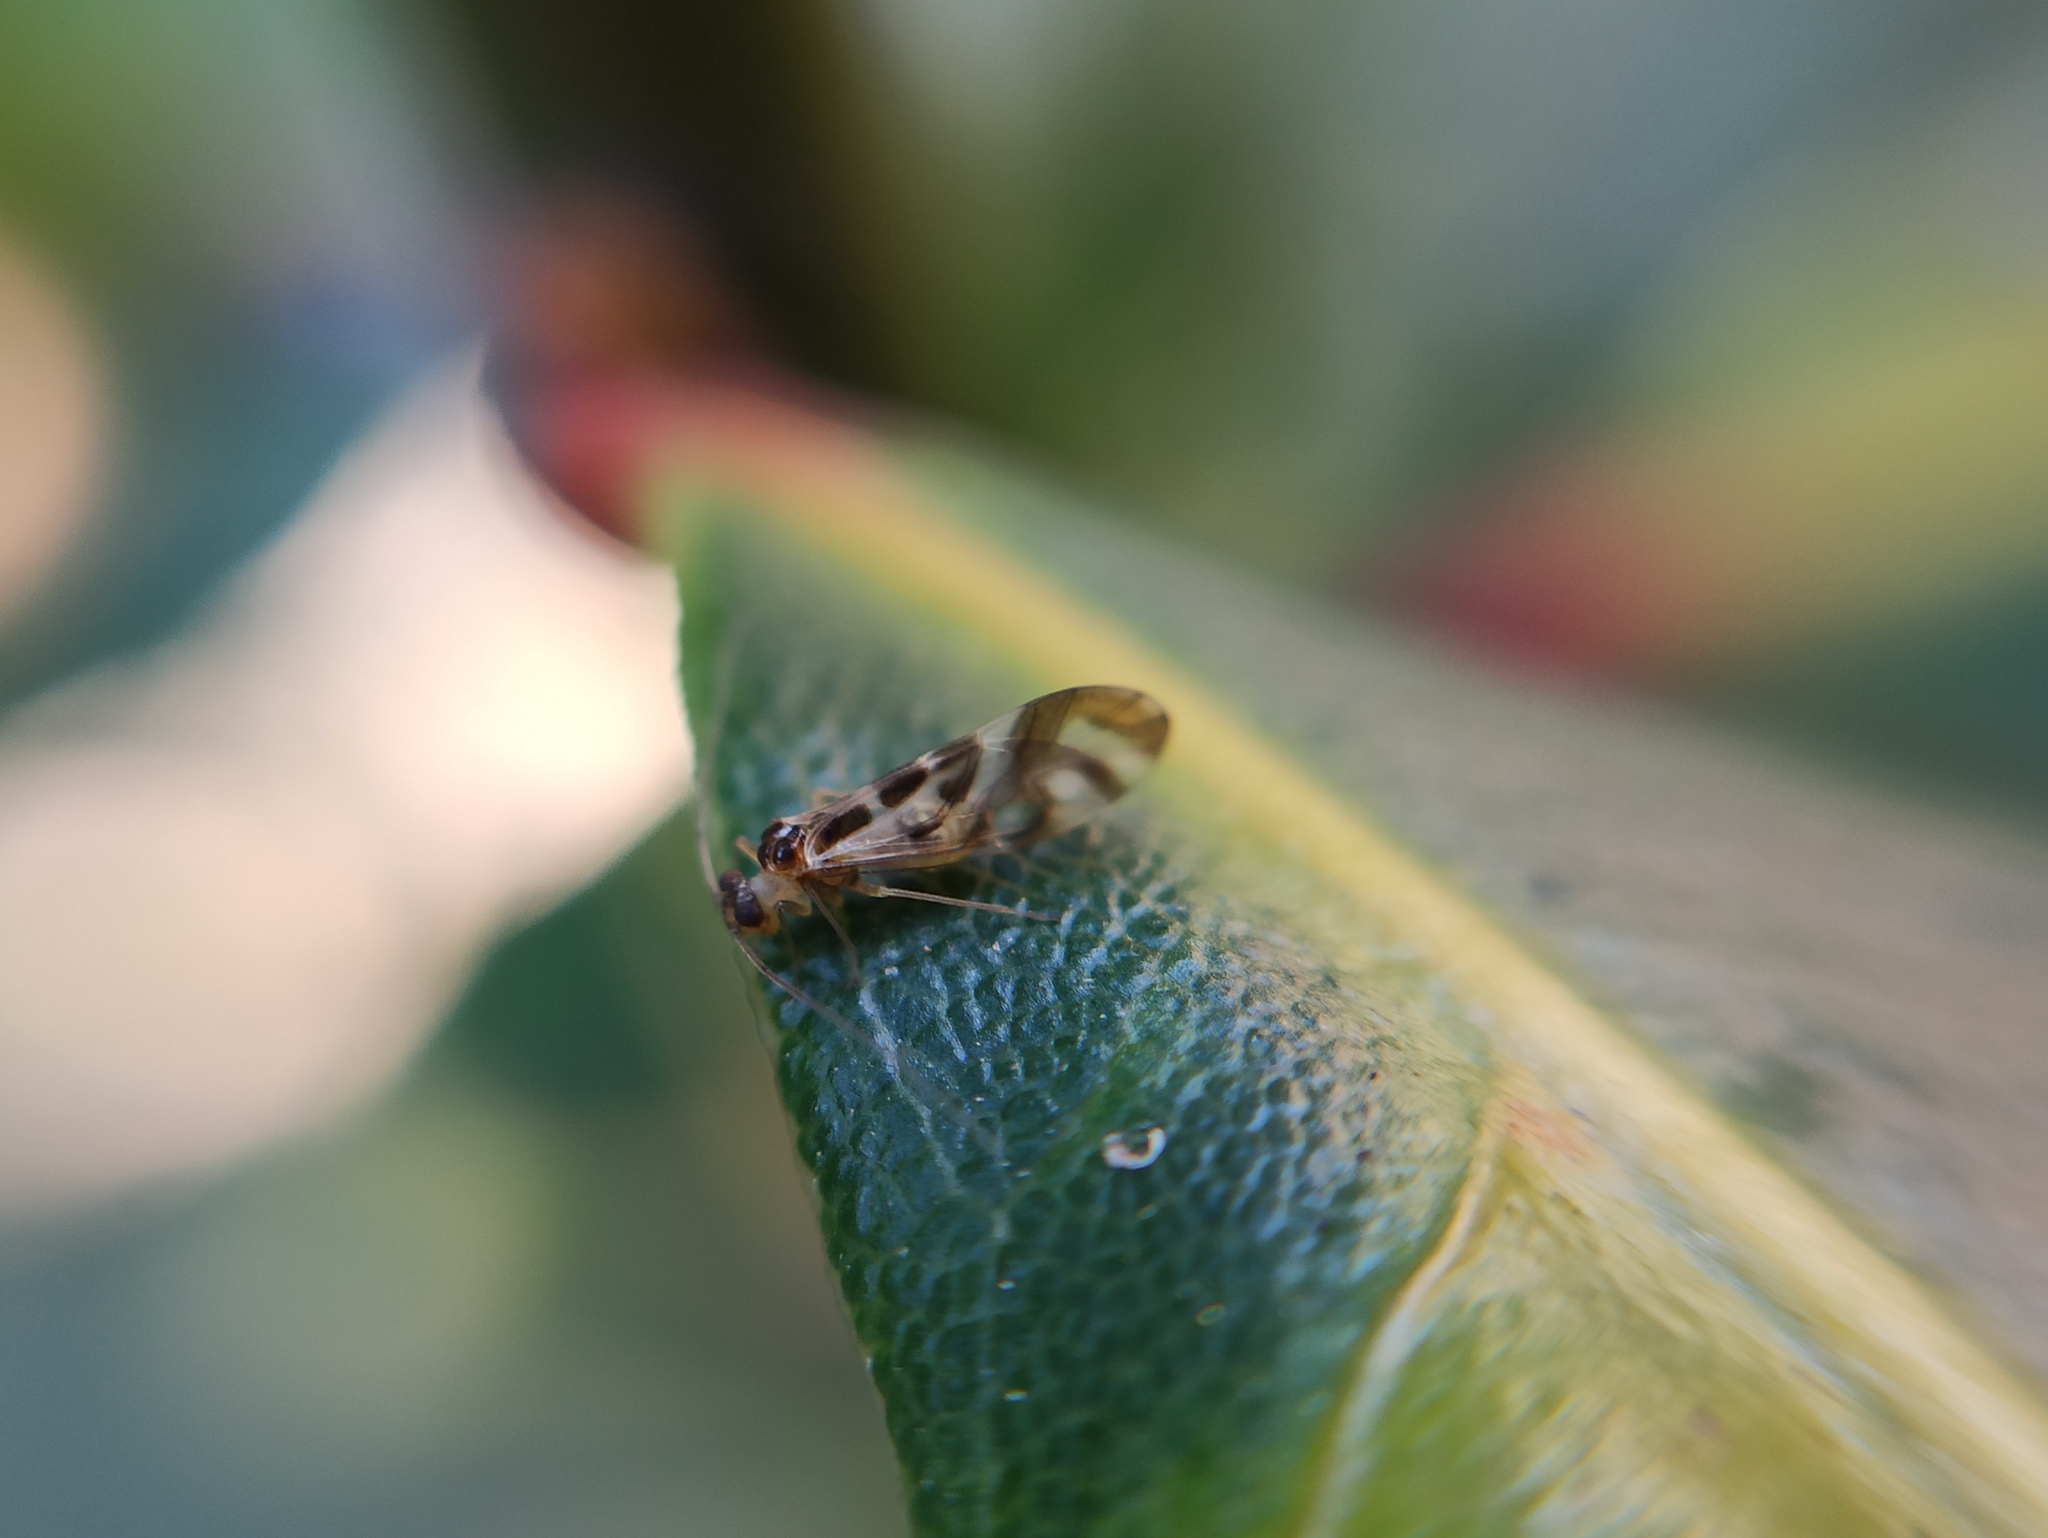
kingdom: Animalia
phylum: Arthropoda
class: Insecta
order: Psocodea
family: Stenopsocidae
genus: Graphopsocus
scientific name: Graphopsocus cruciatus
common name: Lizard bark louse
